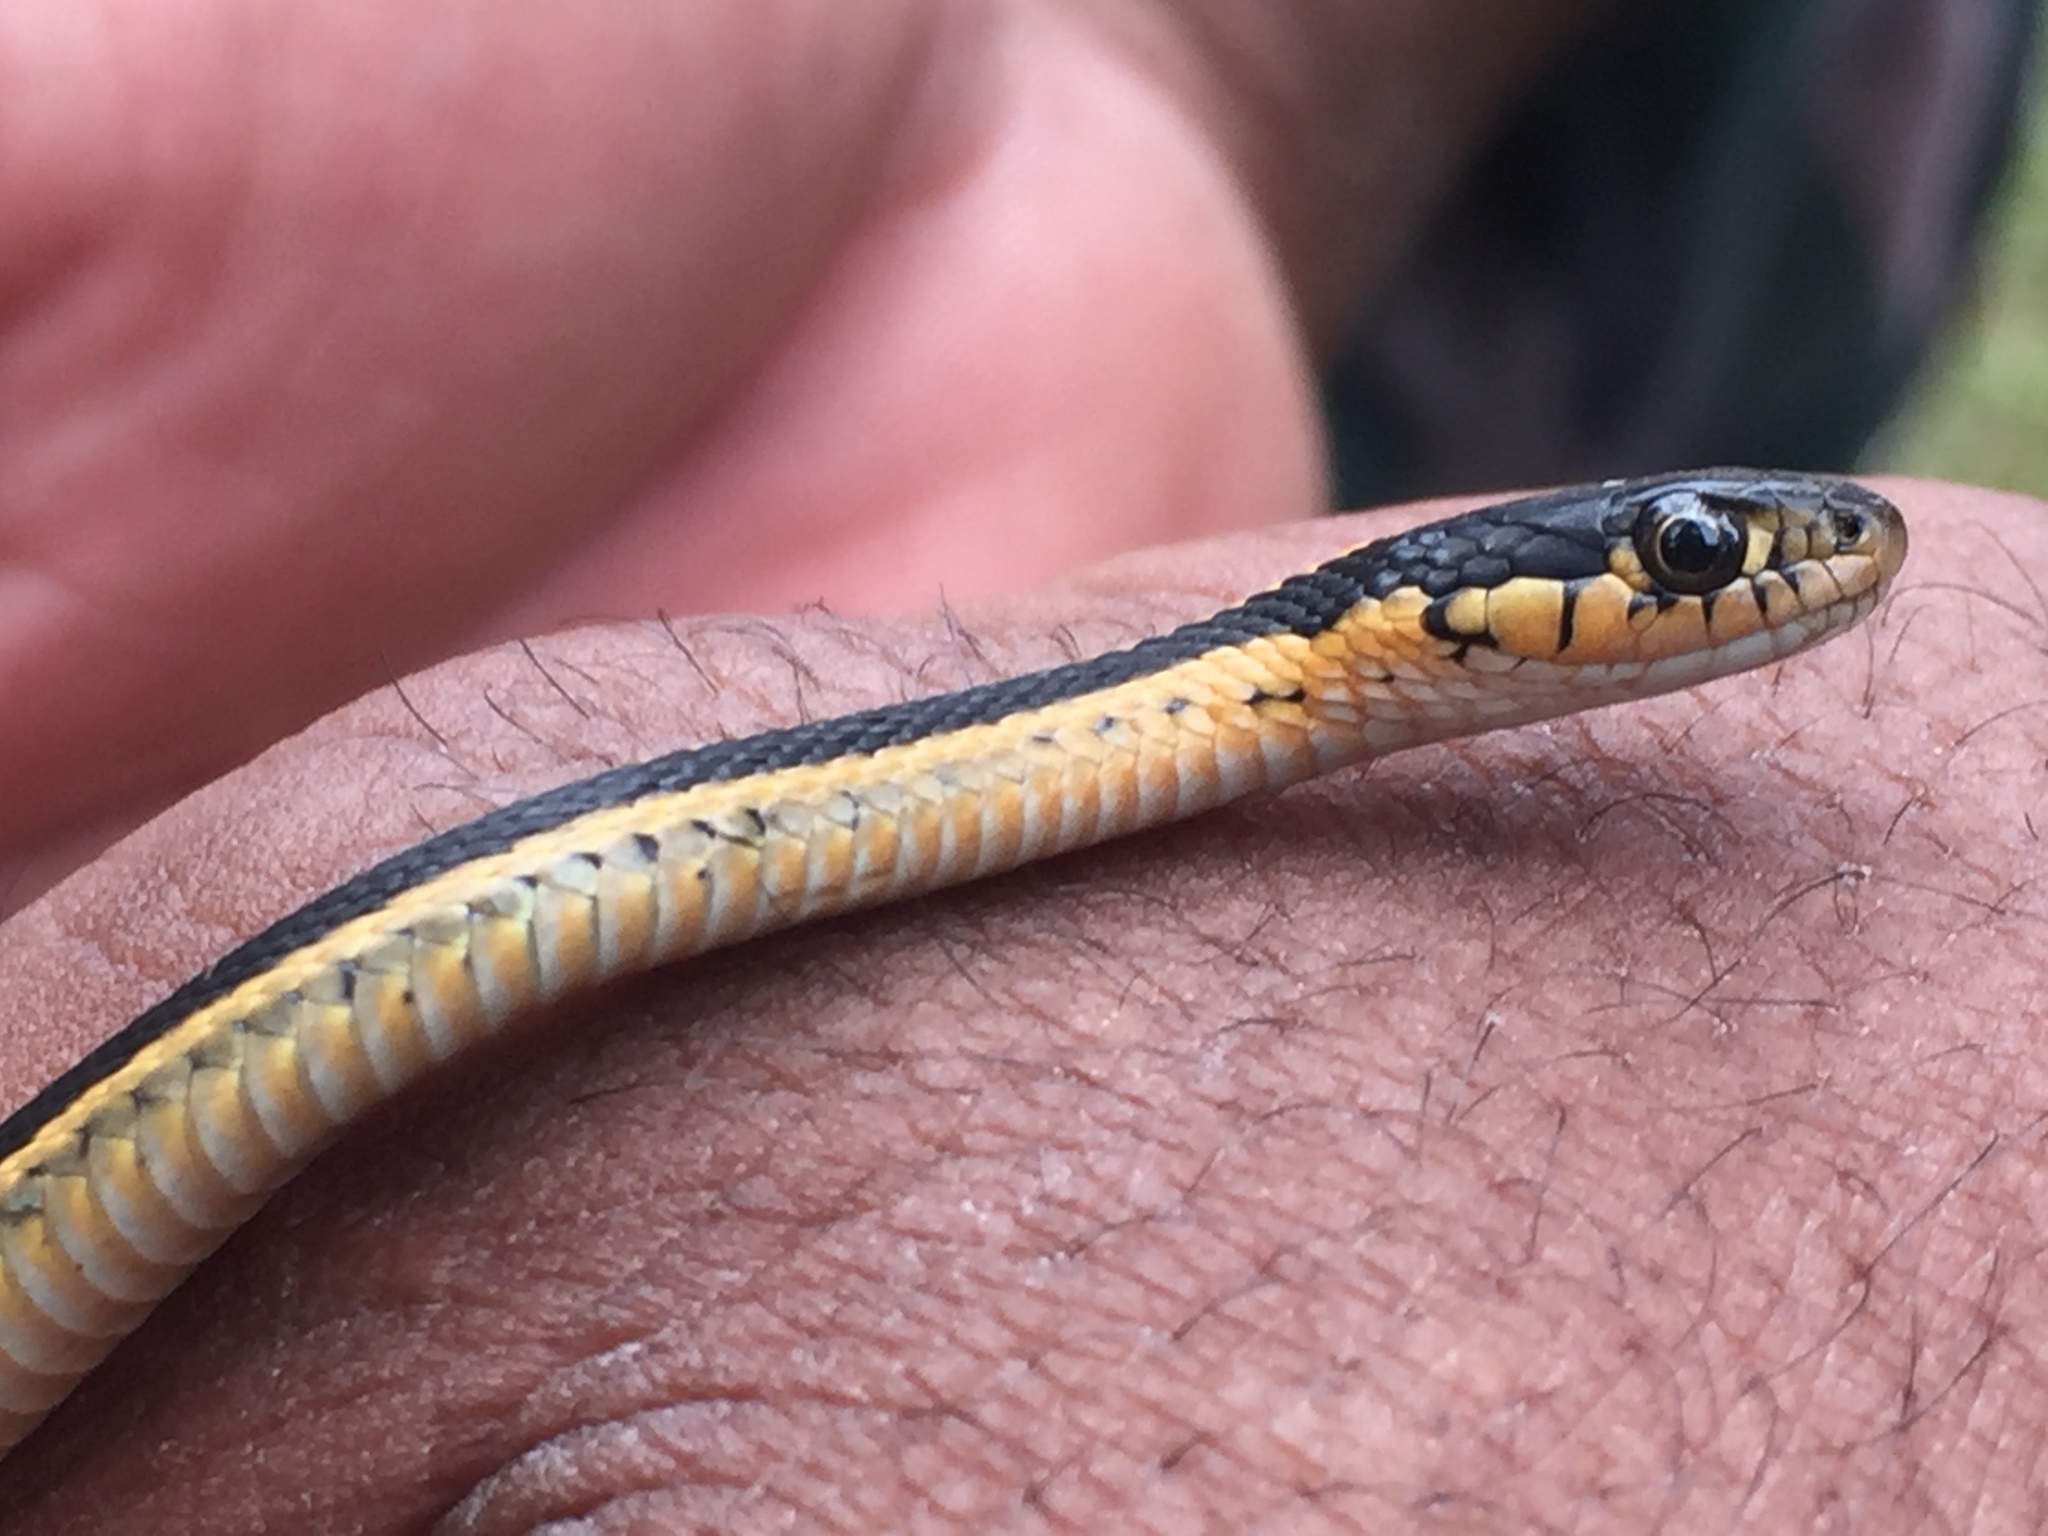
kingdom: Animalia
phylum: Chordata
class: Squamata
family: Colubridae
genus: Thamnophis
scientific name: Thamnophis elegans
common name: Western terrestrial garter snake
